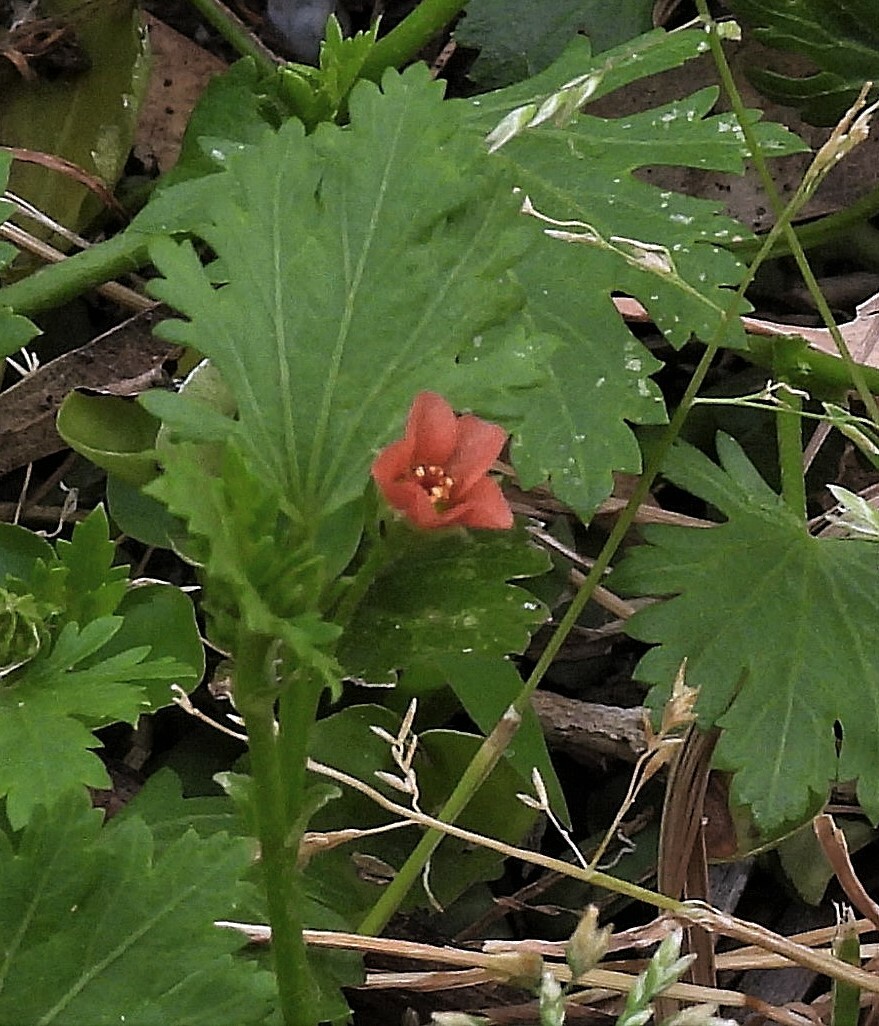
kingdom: Plantae
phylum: Tracheophyta
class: Magnoliopsida
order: Malvales
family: Malvaceae
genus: Modiola
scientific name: Modiola caroliniana
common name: Carolina bristlemallow
